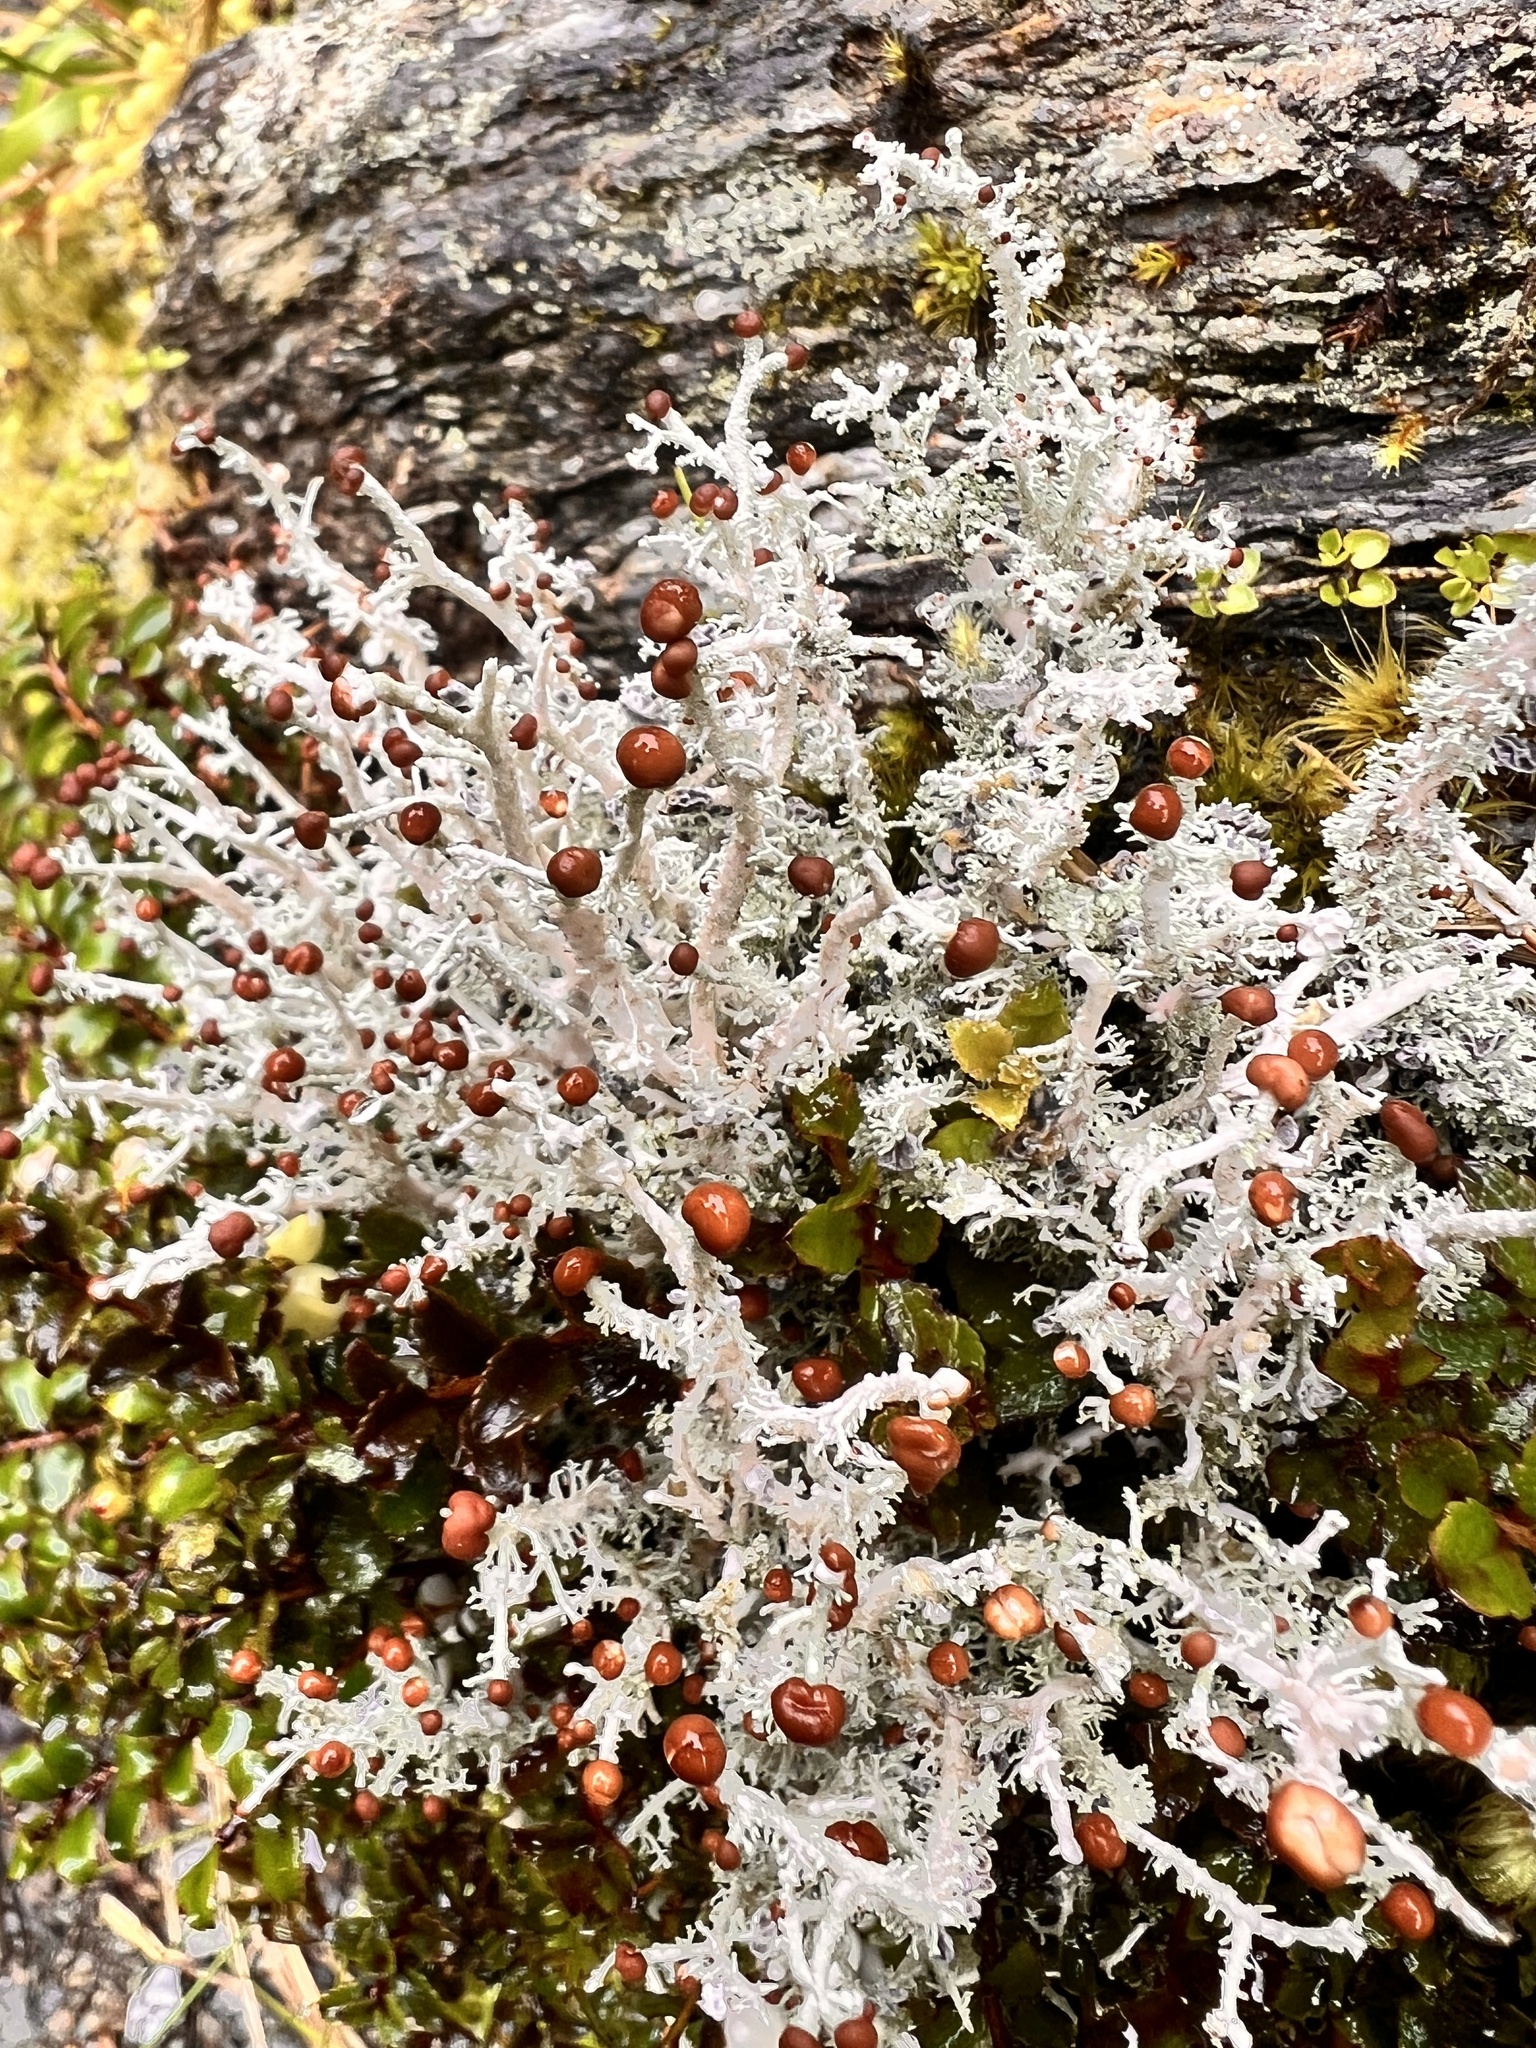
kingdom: Fungi
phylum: Ascomycota
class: Lecanoromycetes
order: Lecanorales
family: Stereocaulaceae
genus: Stereocaulon
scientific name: Stereocaulon ramulosum
